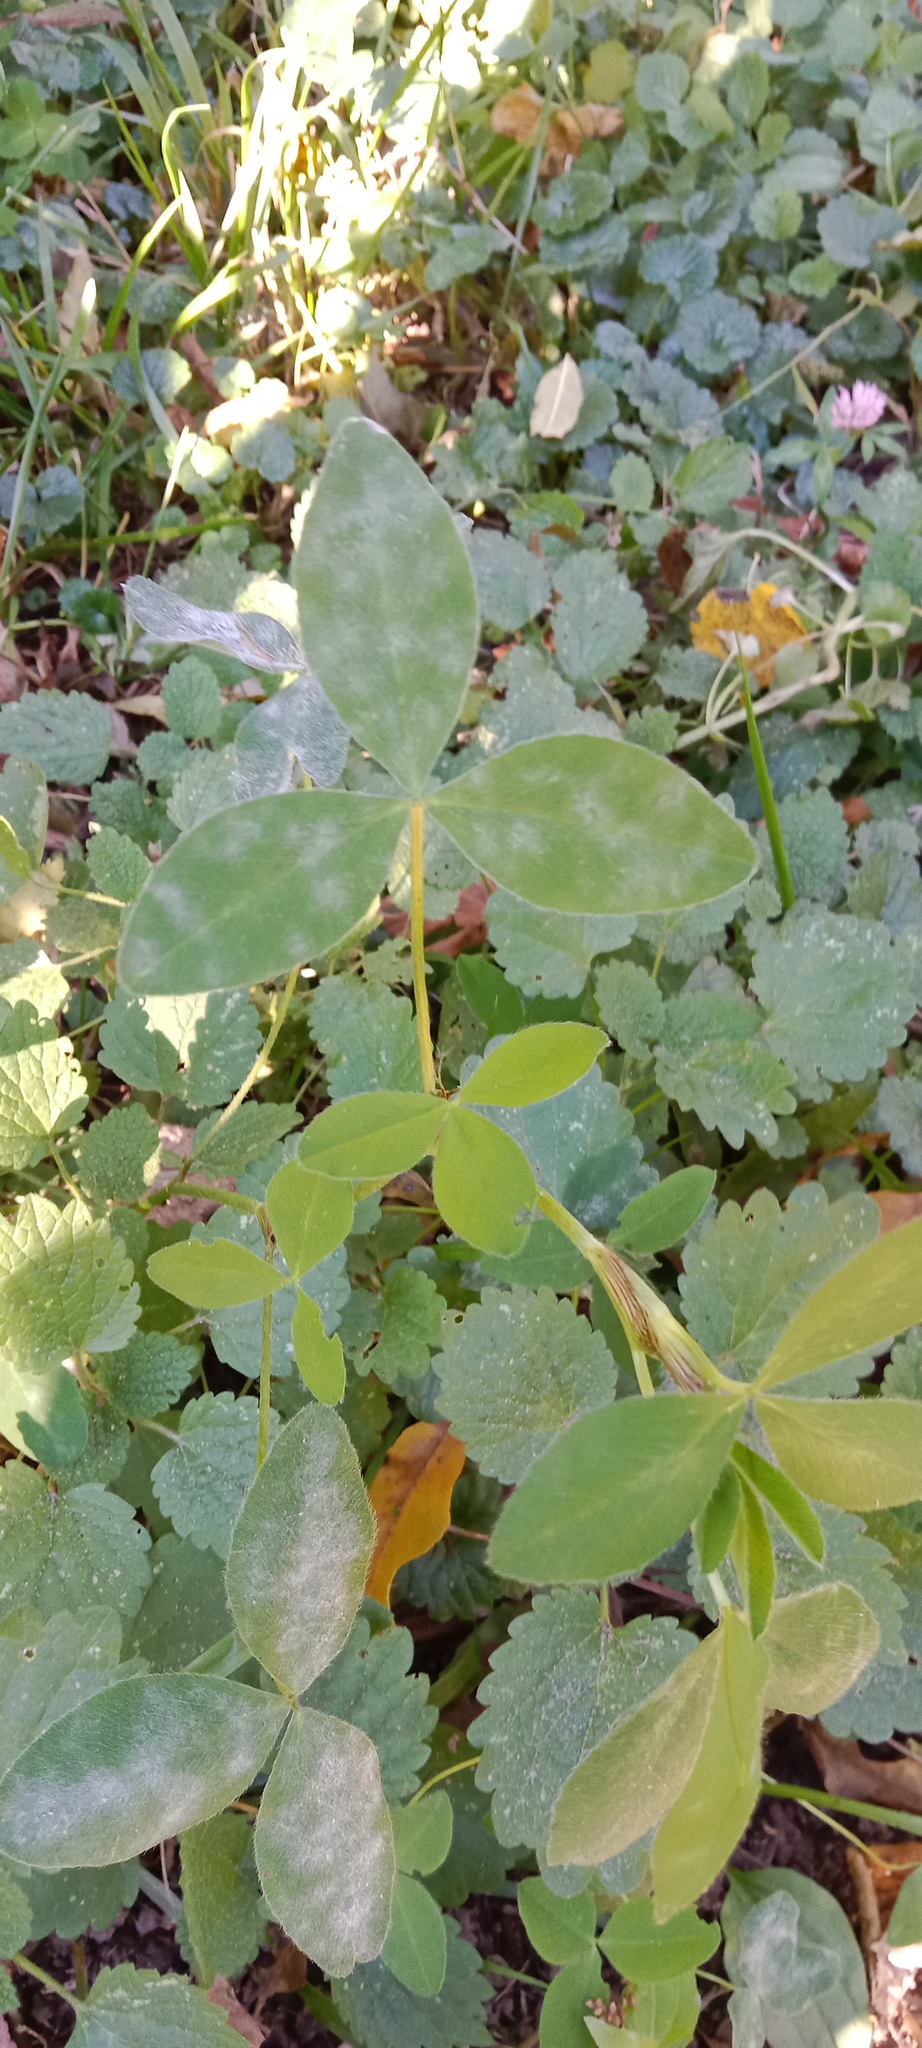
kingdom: Plantae
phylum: Tracheophyta
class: Magnoliopsida
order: Fabales
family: Fabaceae
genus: Trifolium
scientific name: Trifolium pratense
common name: Red clover
